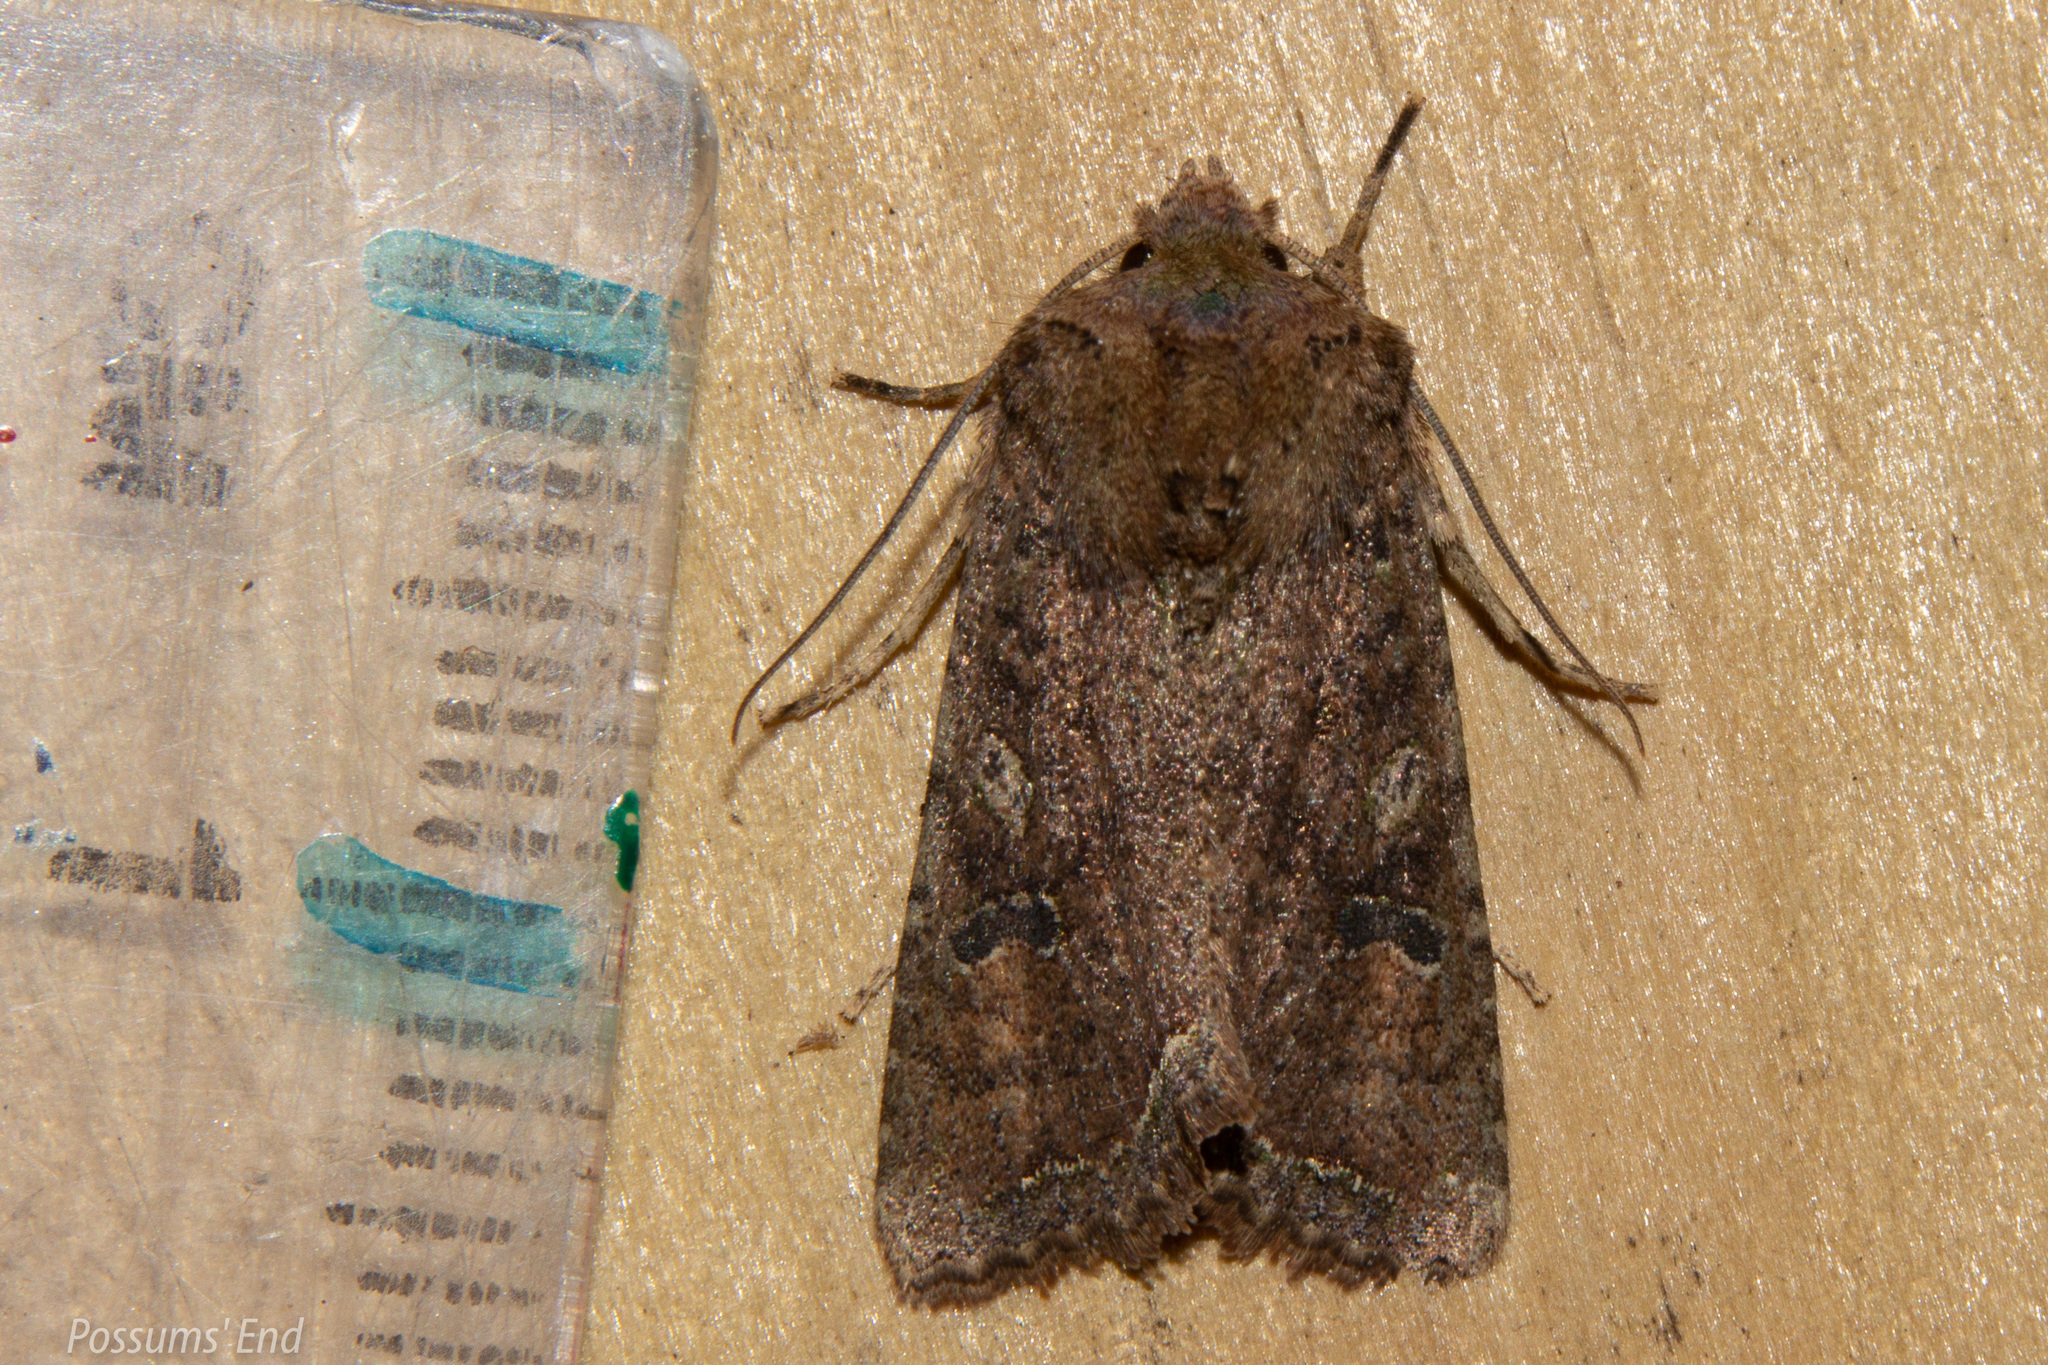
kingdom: Animalia
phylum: Arthropoda
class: Insecta
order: Lepidoptera
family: Noctuidae
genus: Meterana
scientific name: Meterana inchoata
